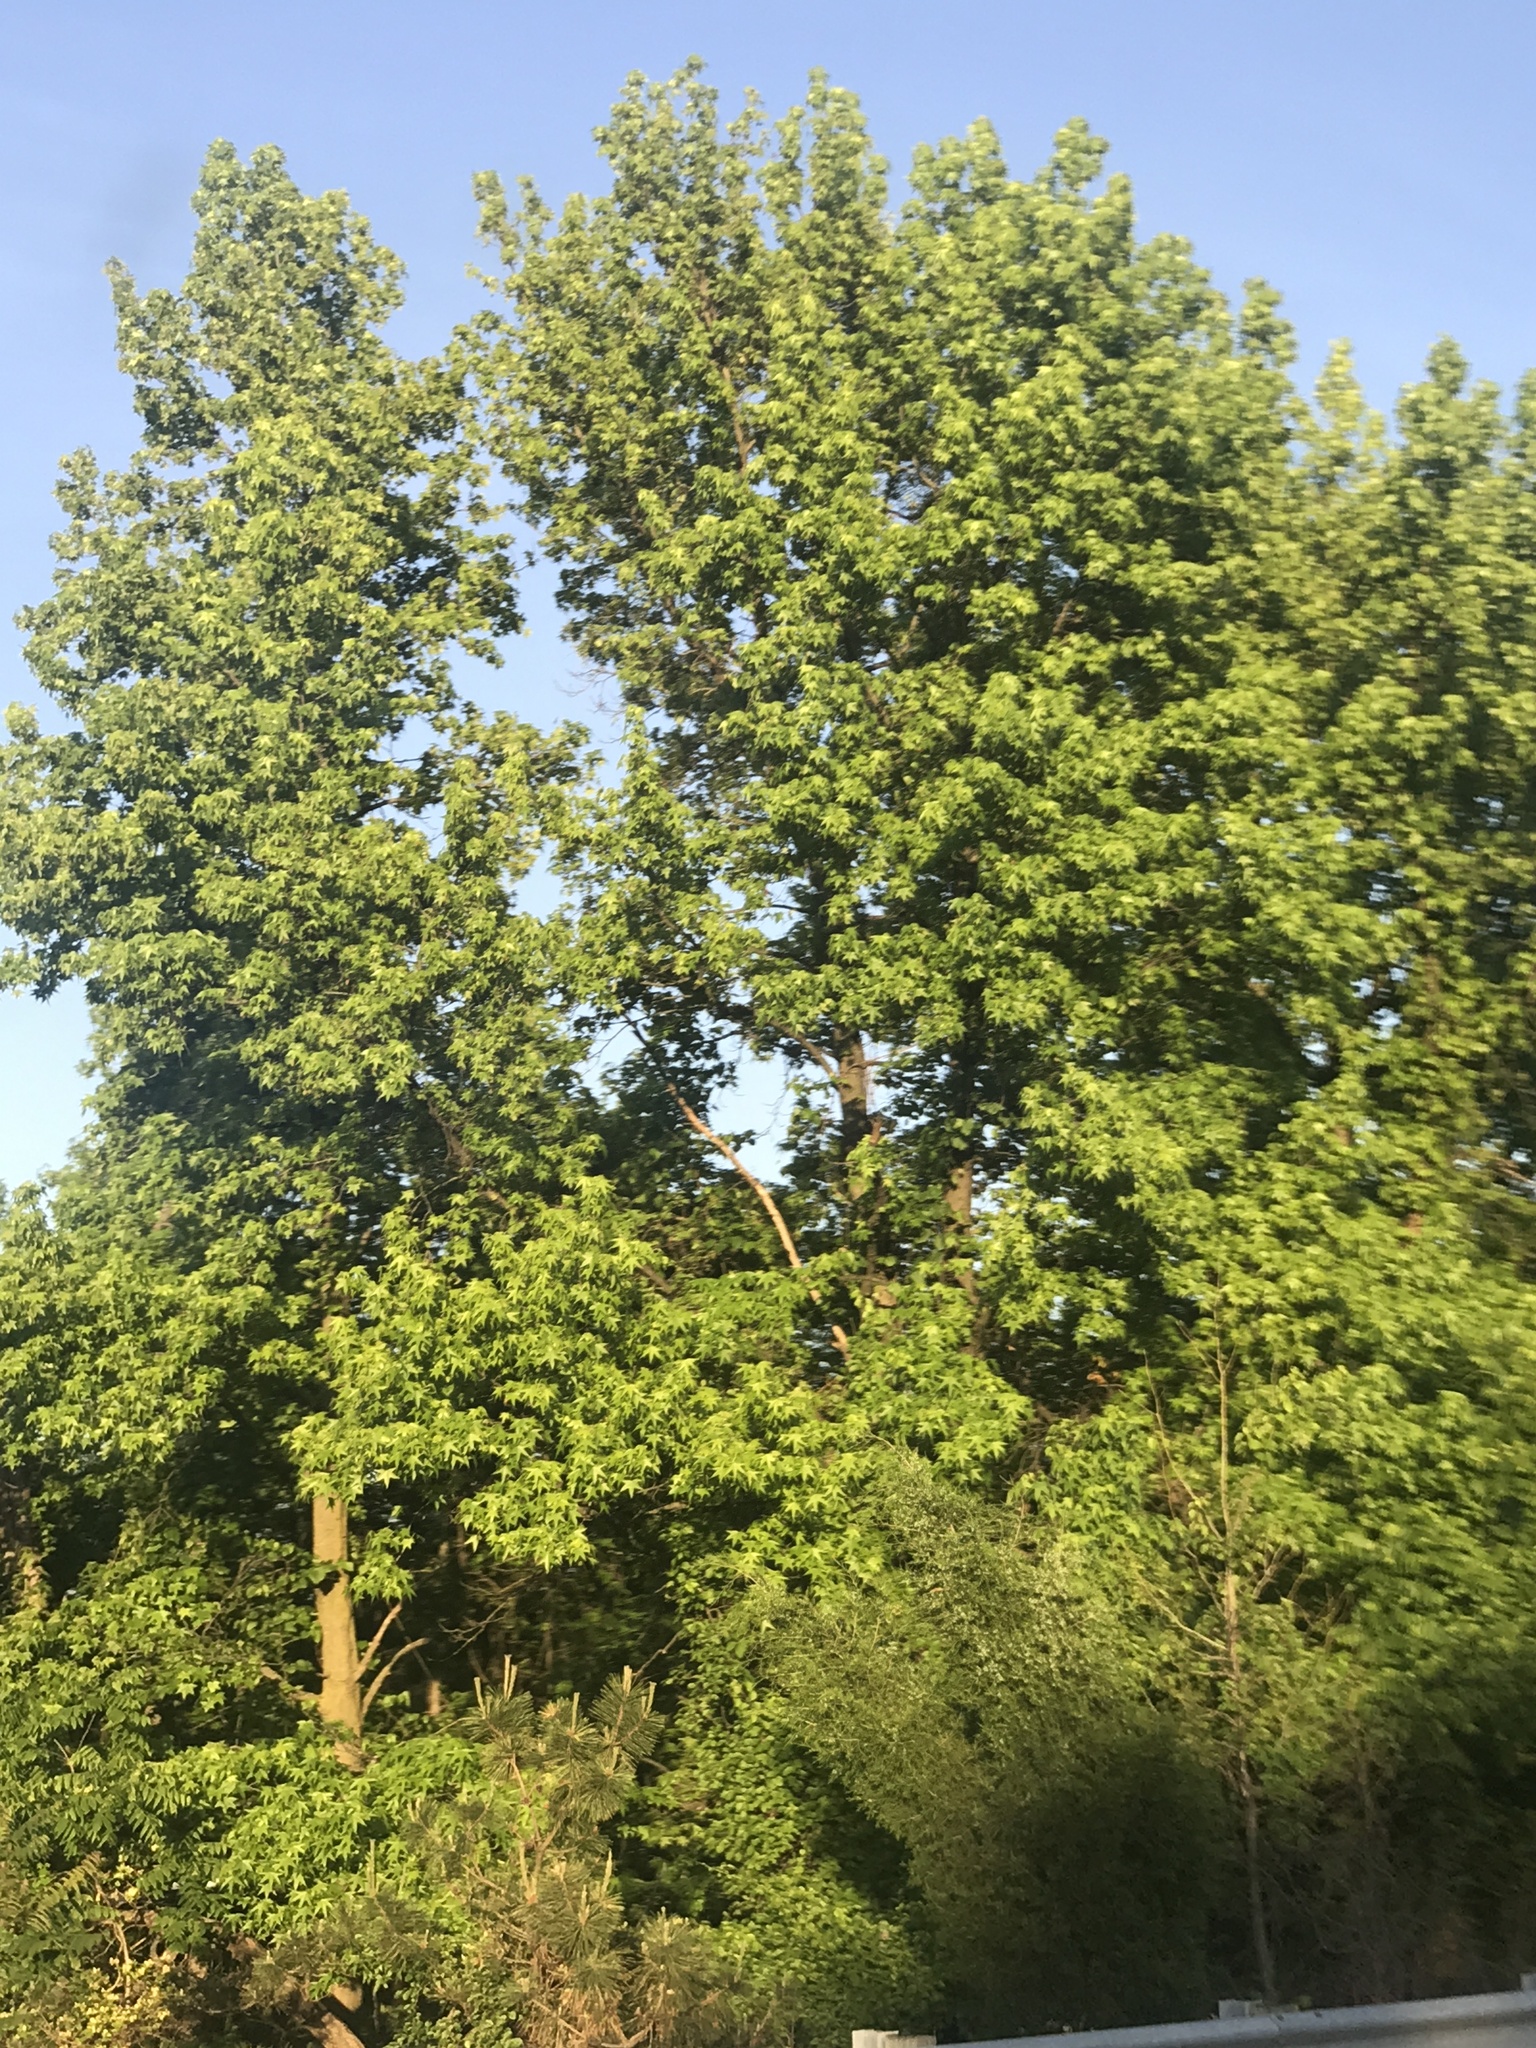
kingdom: Plantae
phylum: Tracheophyta
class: Magnoliopsida
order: Saxifragales
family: Altingiaceae
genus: Liquidambar
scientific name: Liquidambar styraciflua
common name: Sweet gum
